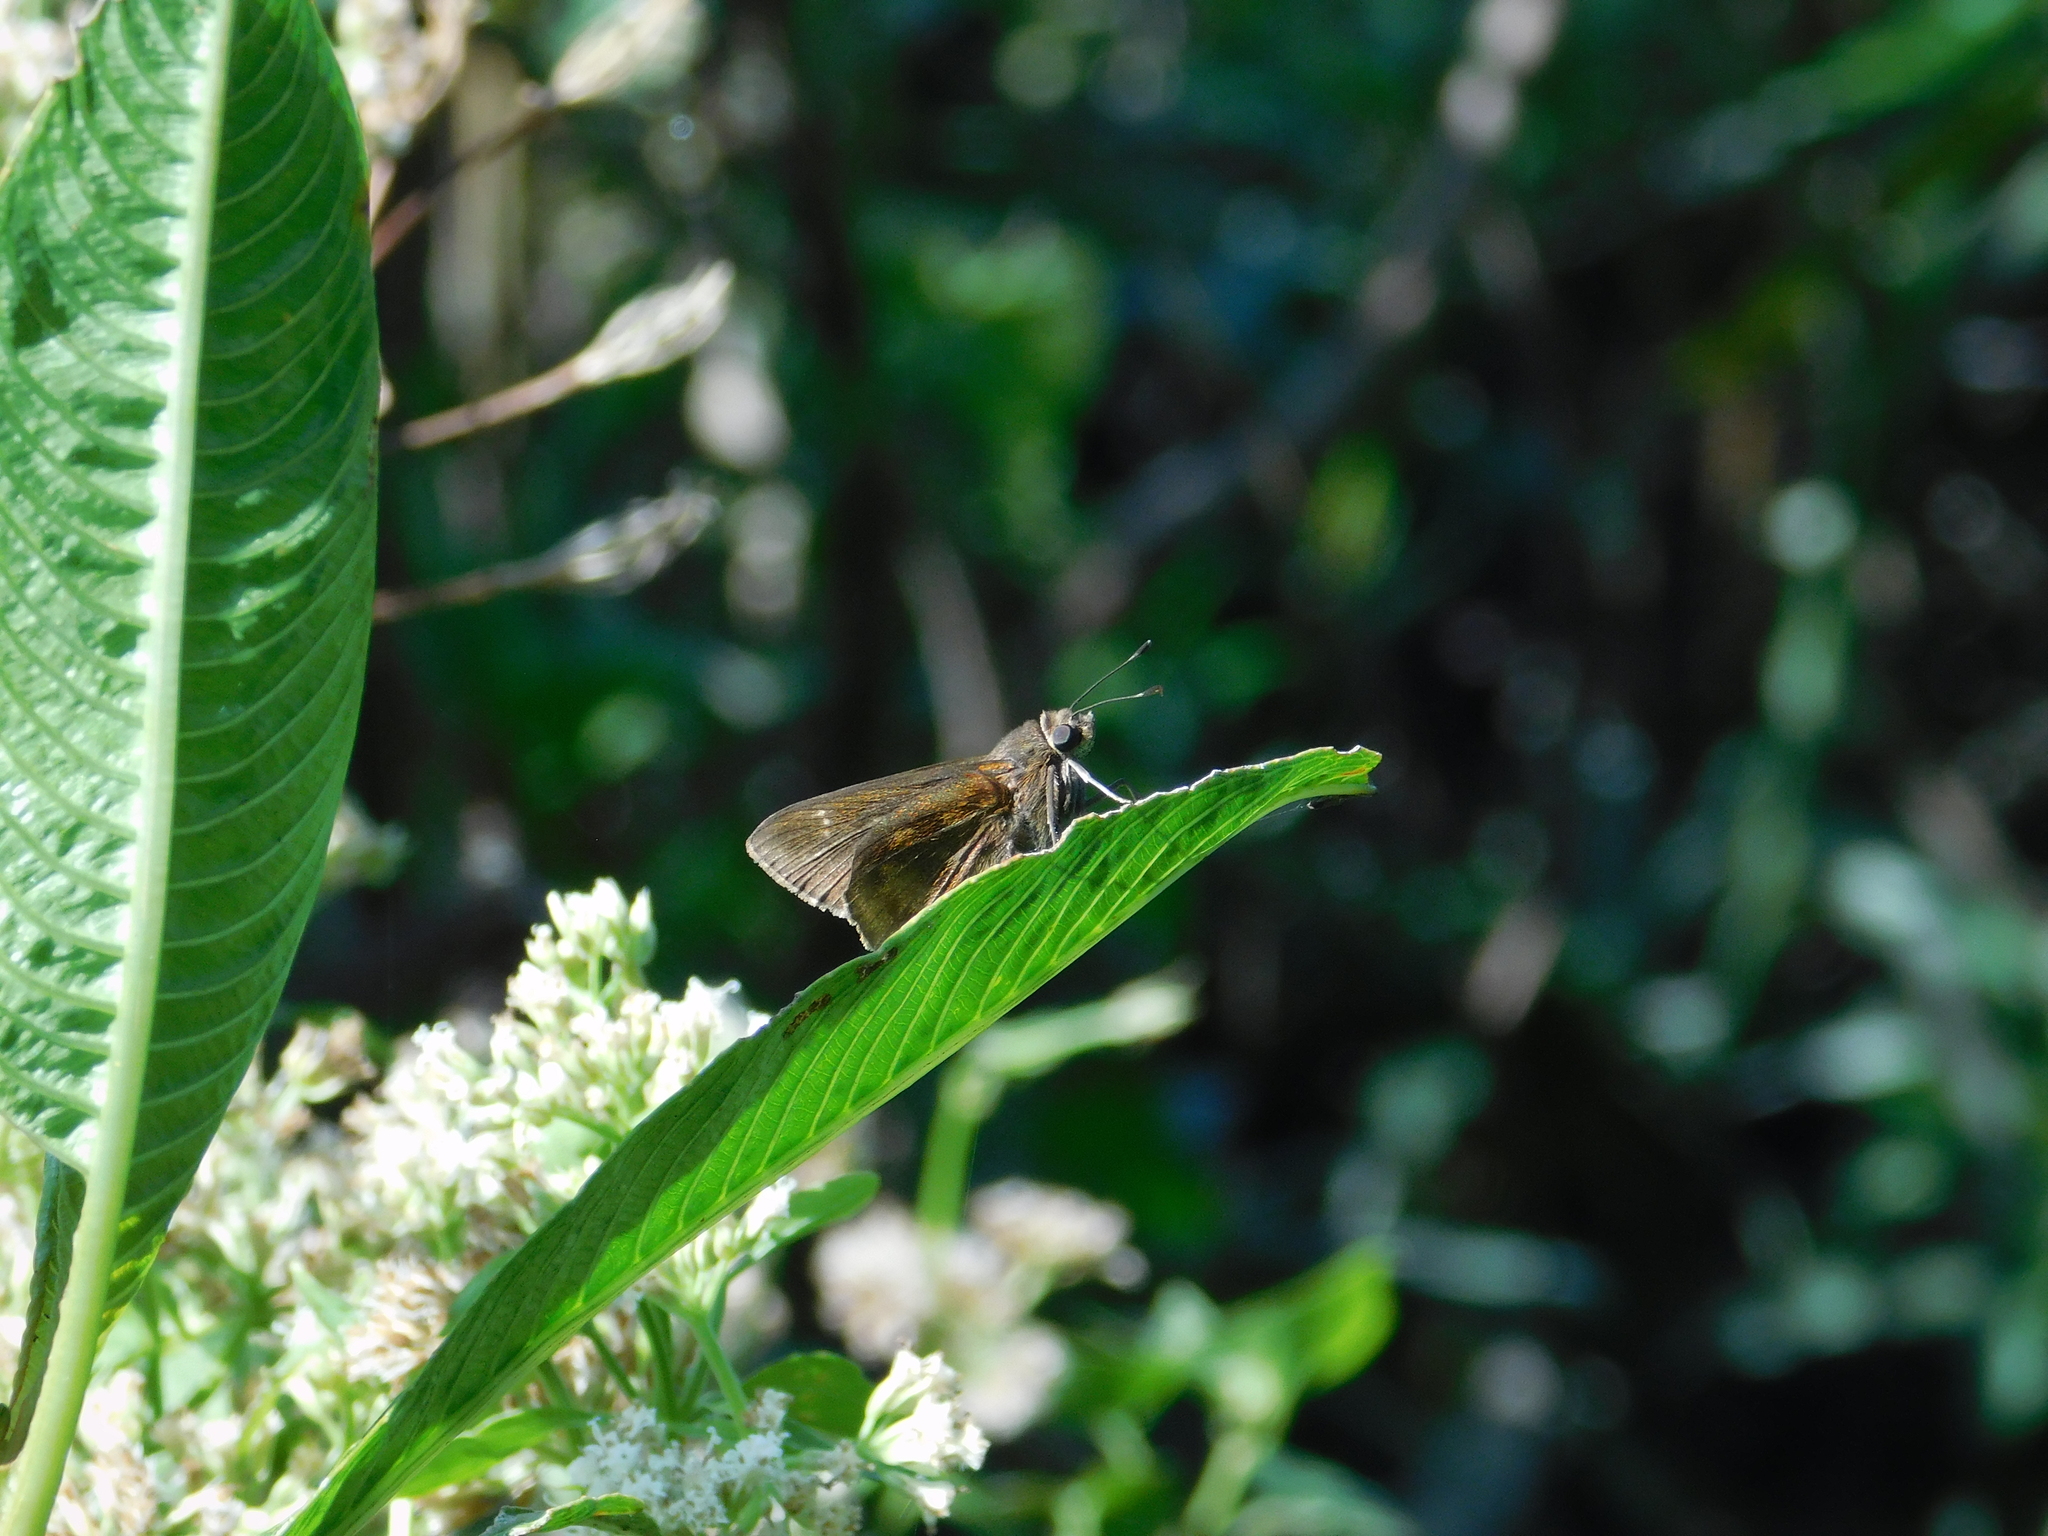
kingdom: Animalia
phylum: Arthropoda
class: Insecta
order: Lepidoptera
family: Hesperiidae
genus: Quinta
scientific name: Quinta cannae
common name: Canna skipper
